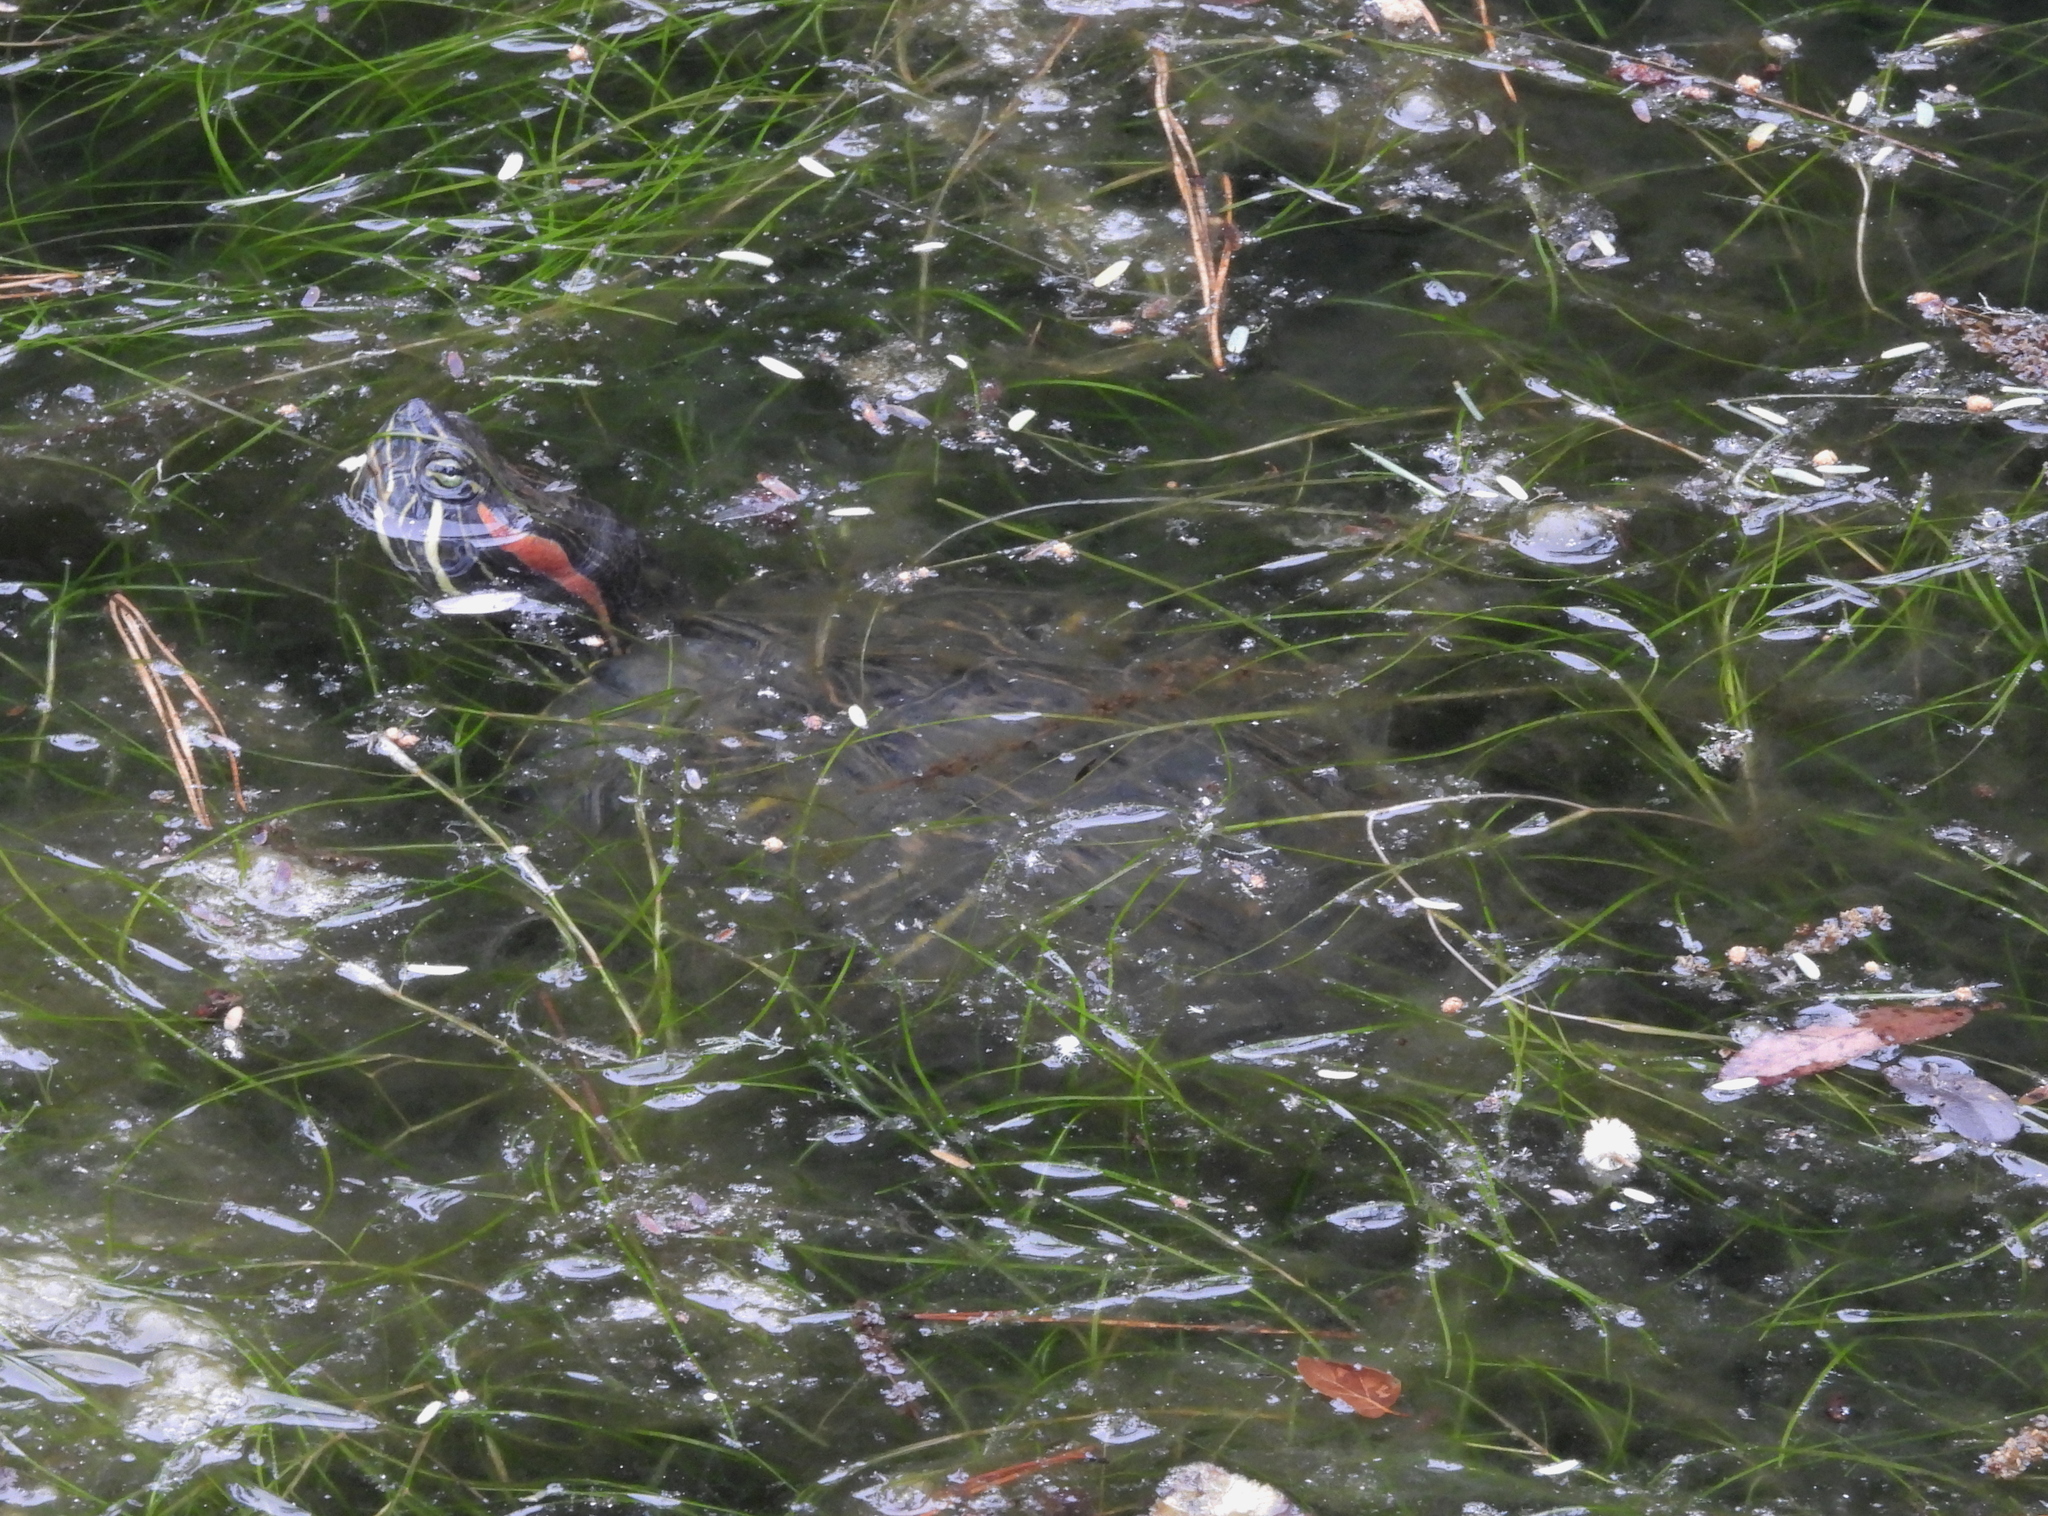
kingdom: Animalia
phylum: Chordata
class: Testudines
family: Emydidae
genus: Trachemys
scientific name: Trachemys scripta
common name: Slider
